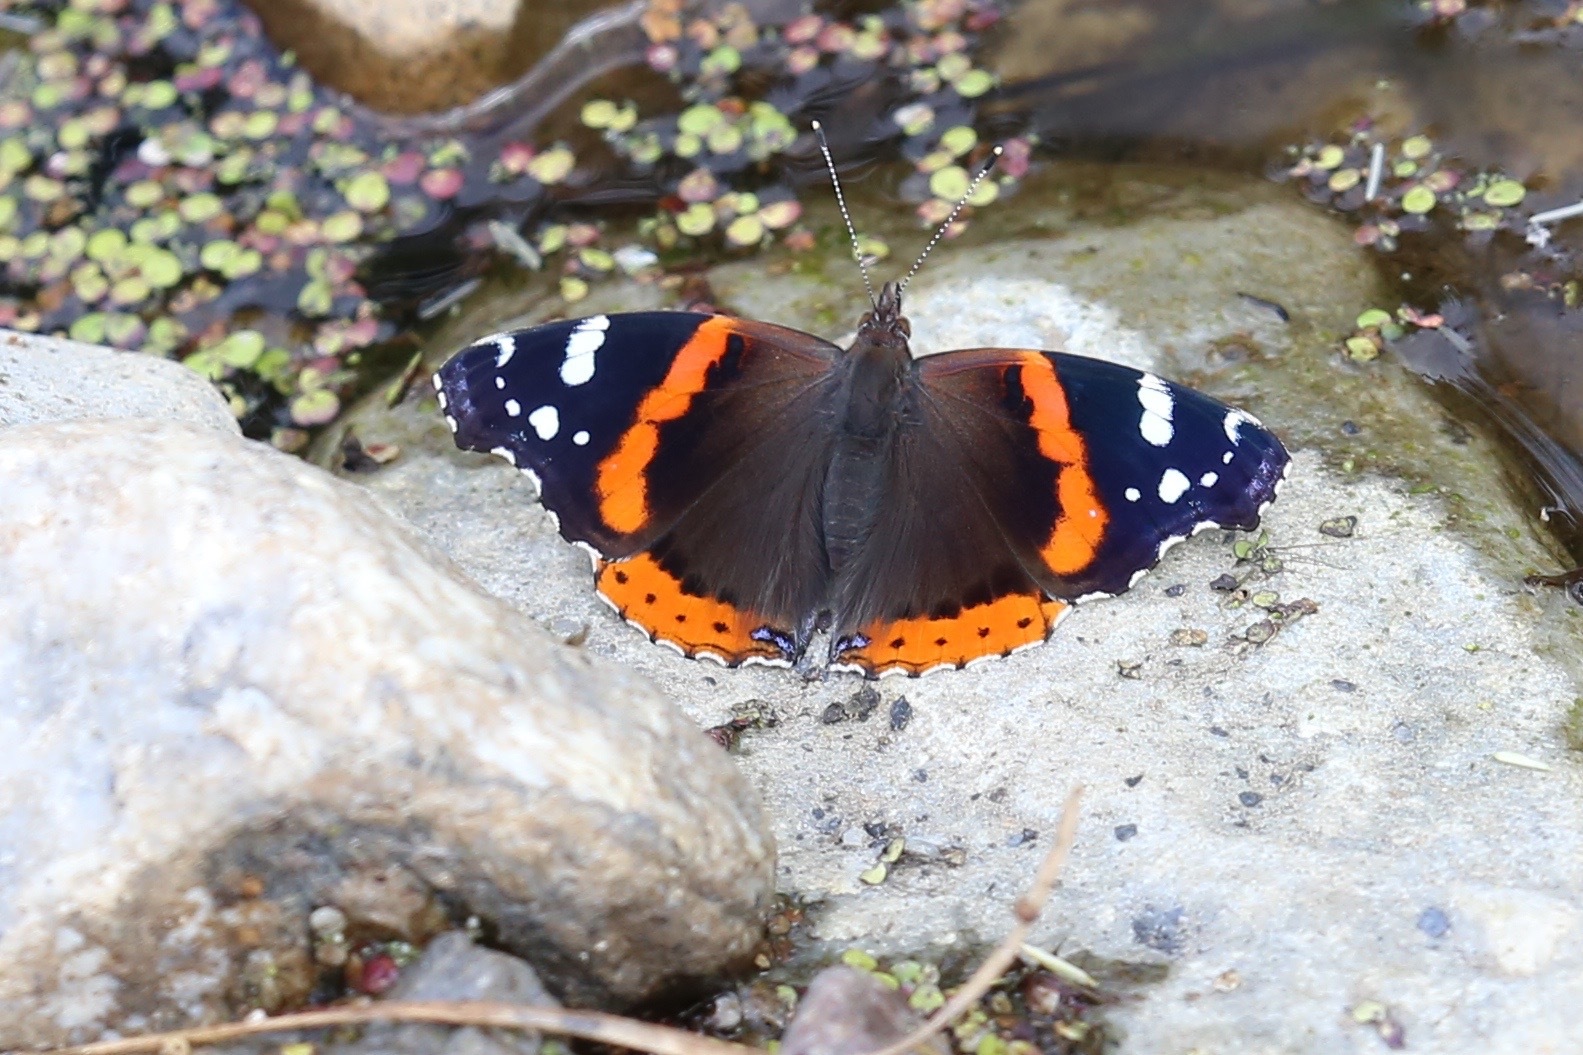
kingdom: Animalia
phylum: Arthropoda
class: Insecta
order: Lepidoptera
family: Nymphalidae
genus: Vanessa
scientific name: Vanessa atalanta
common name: Red admiral
